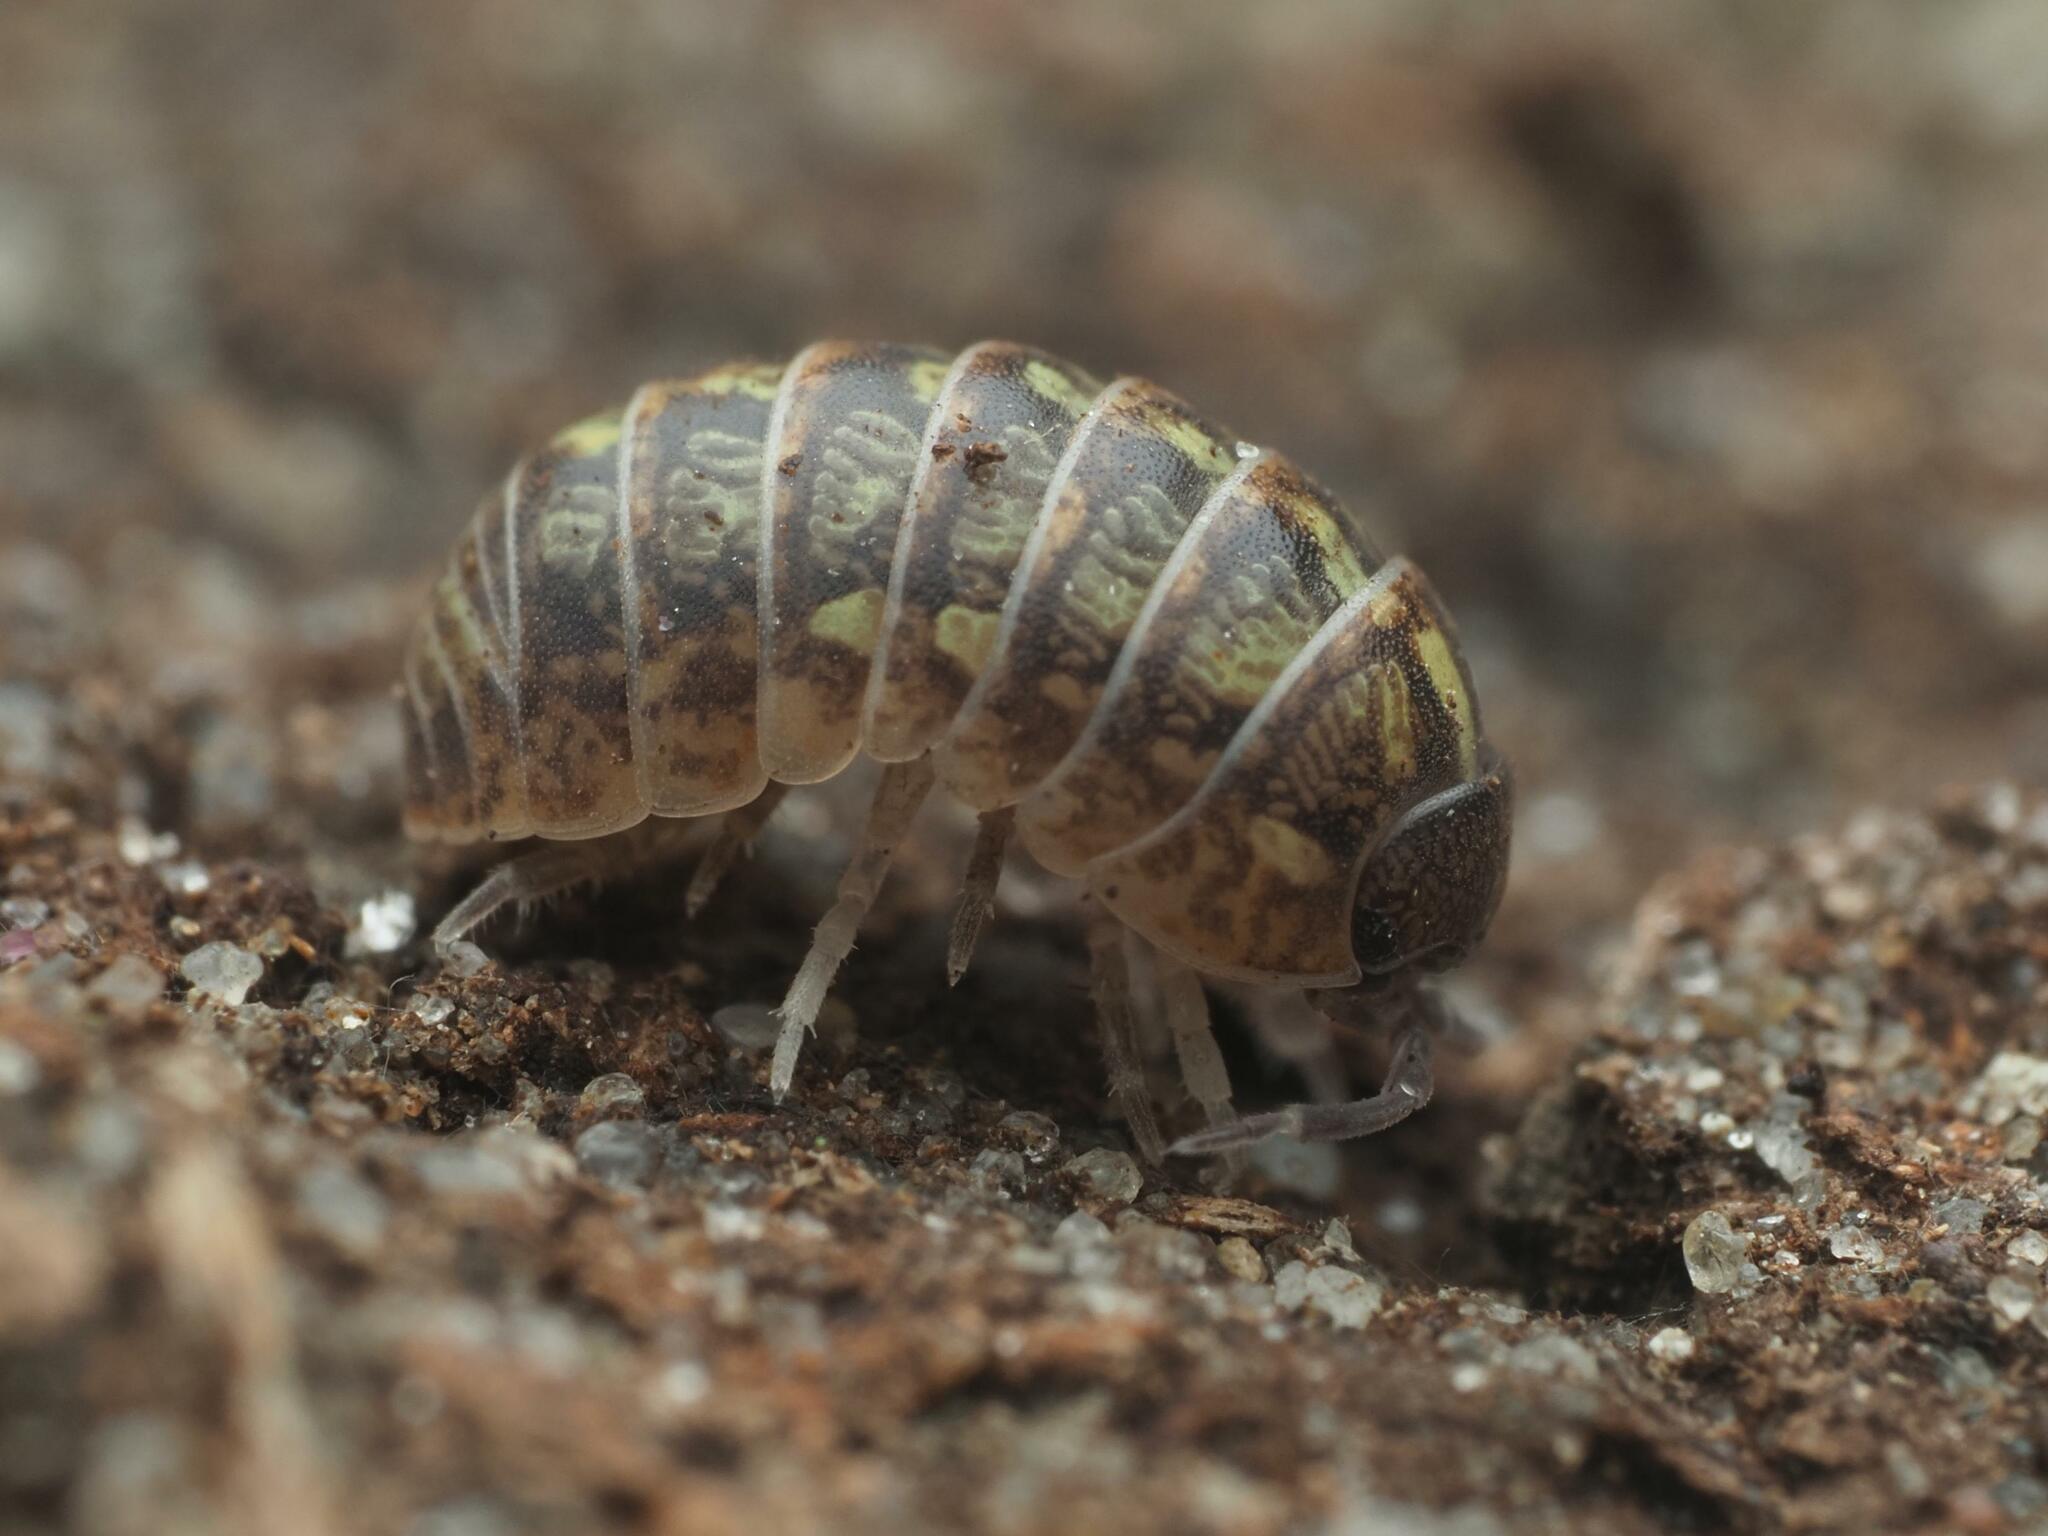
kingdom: Animalia
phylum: Arthropoda
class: Malacostraca
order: Isopoda
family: Armadillidiidae
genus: Armadillidium
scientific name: Armadillidium vulgare
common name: Common pill woodlouse
